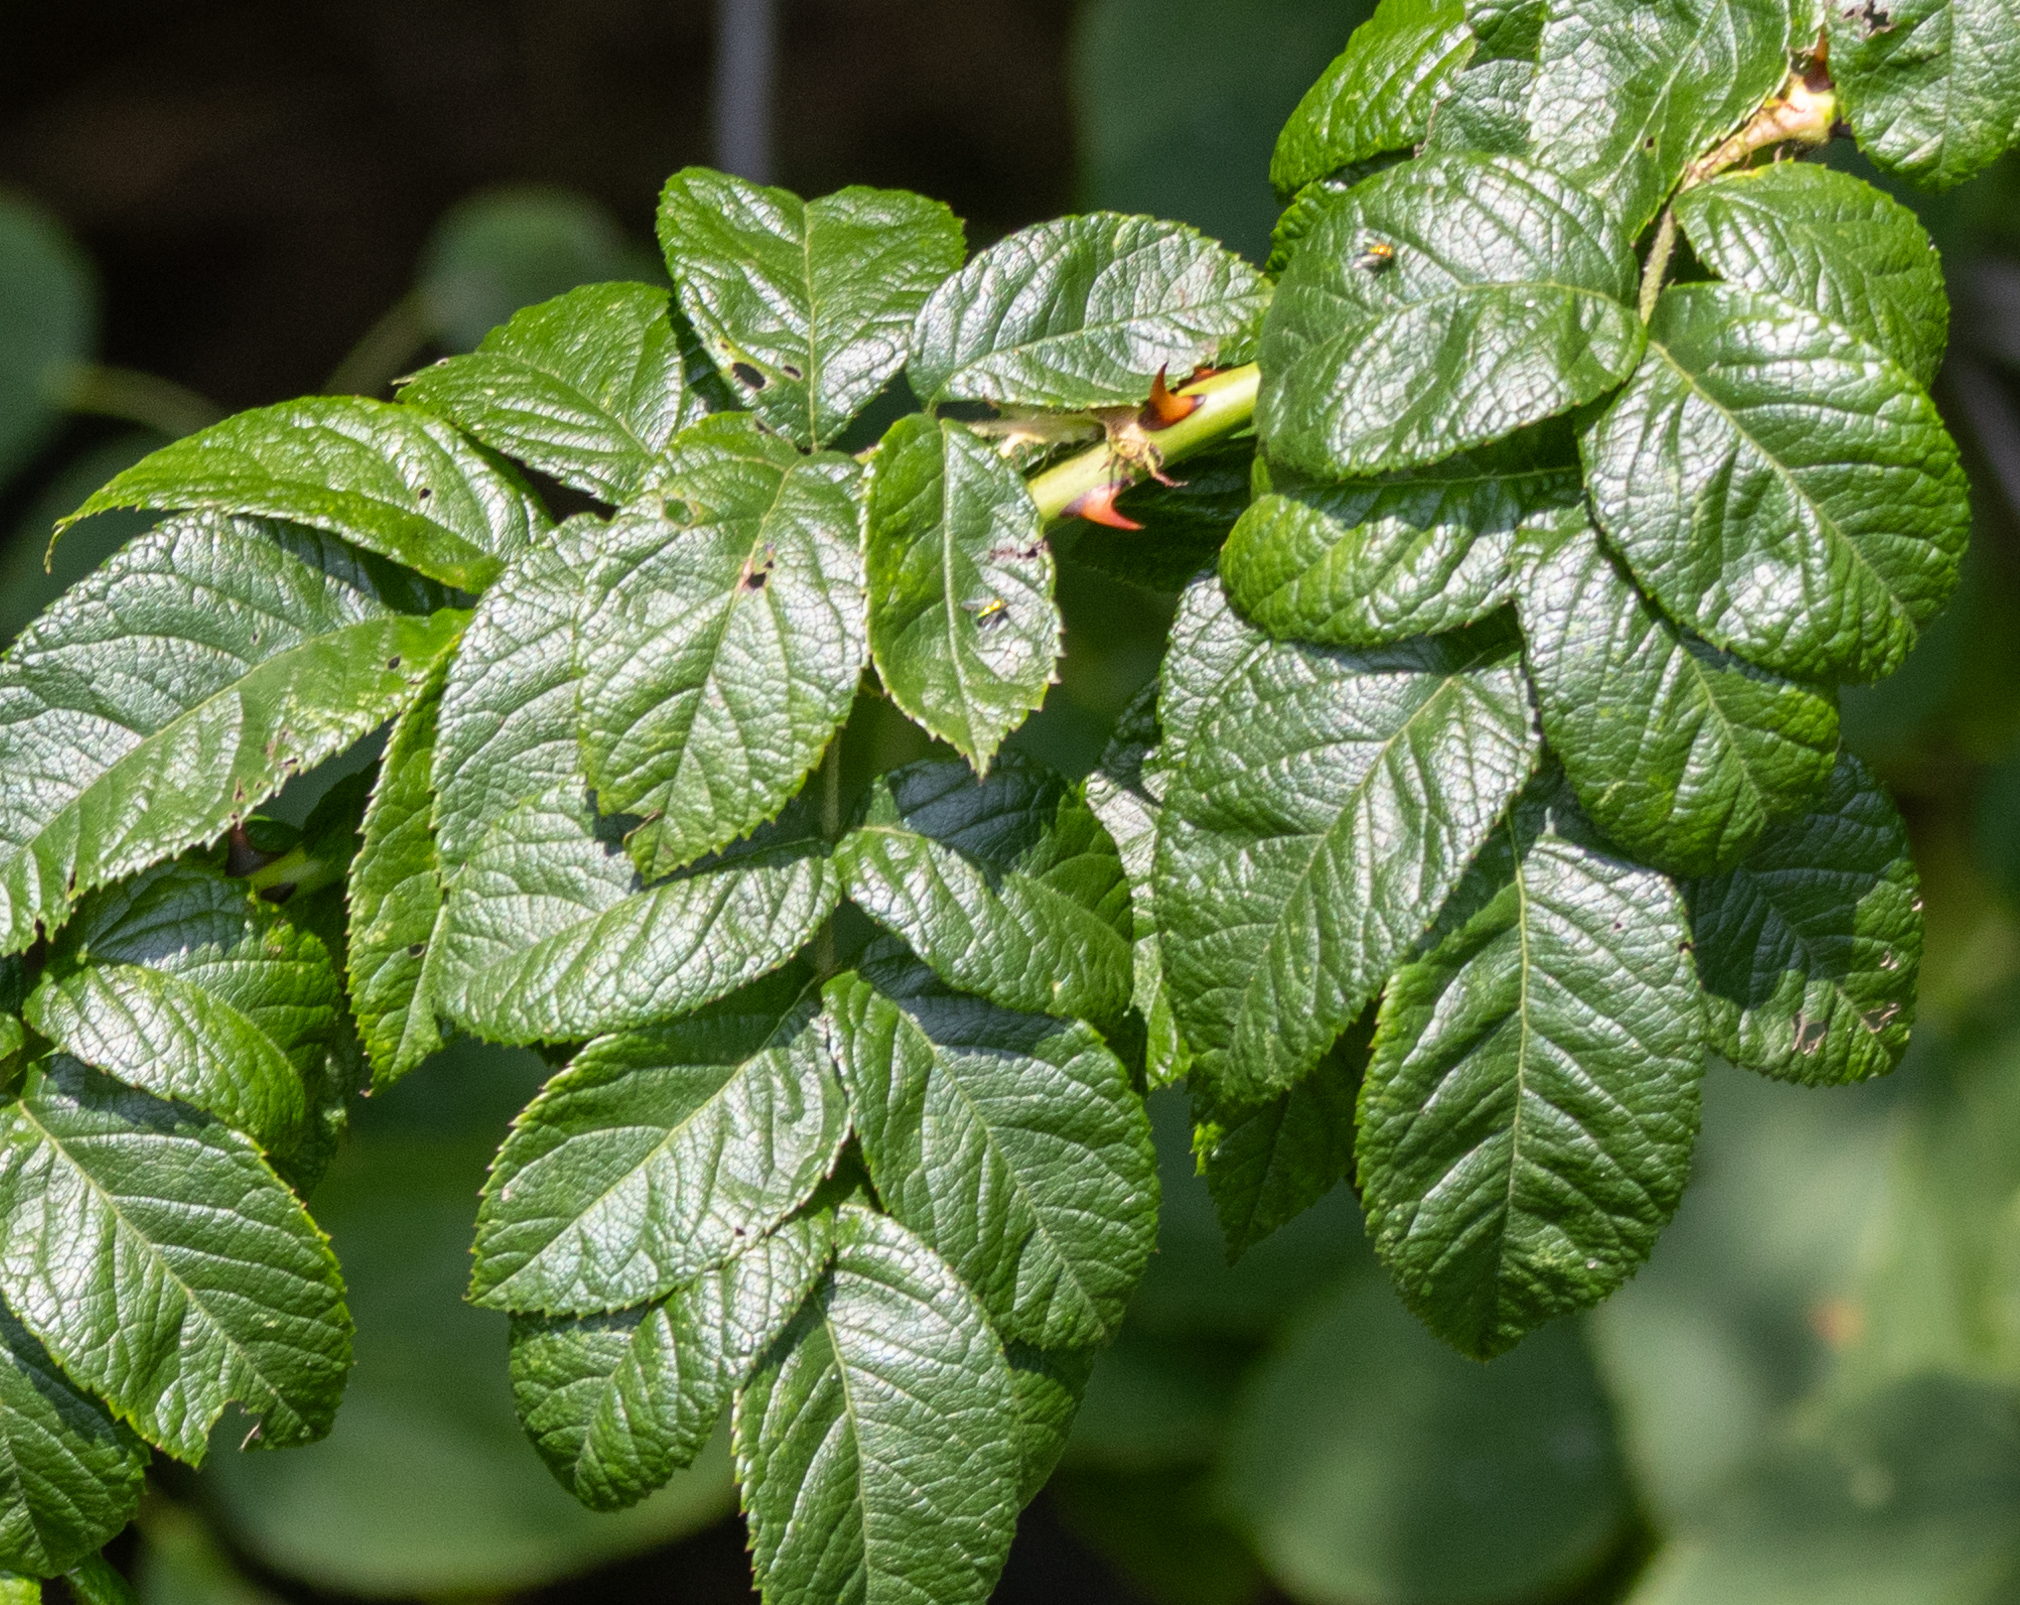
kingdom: Plantae
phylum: Tracheophyta
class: Magnoliopsida
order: Rosales
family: Rosaceae
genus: Rosa
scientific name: Rosa rugosa
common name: Japanese rose
